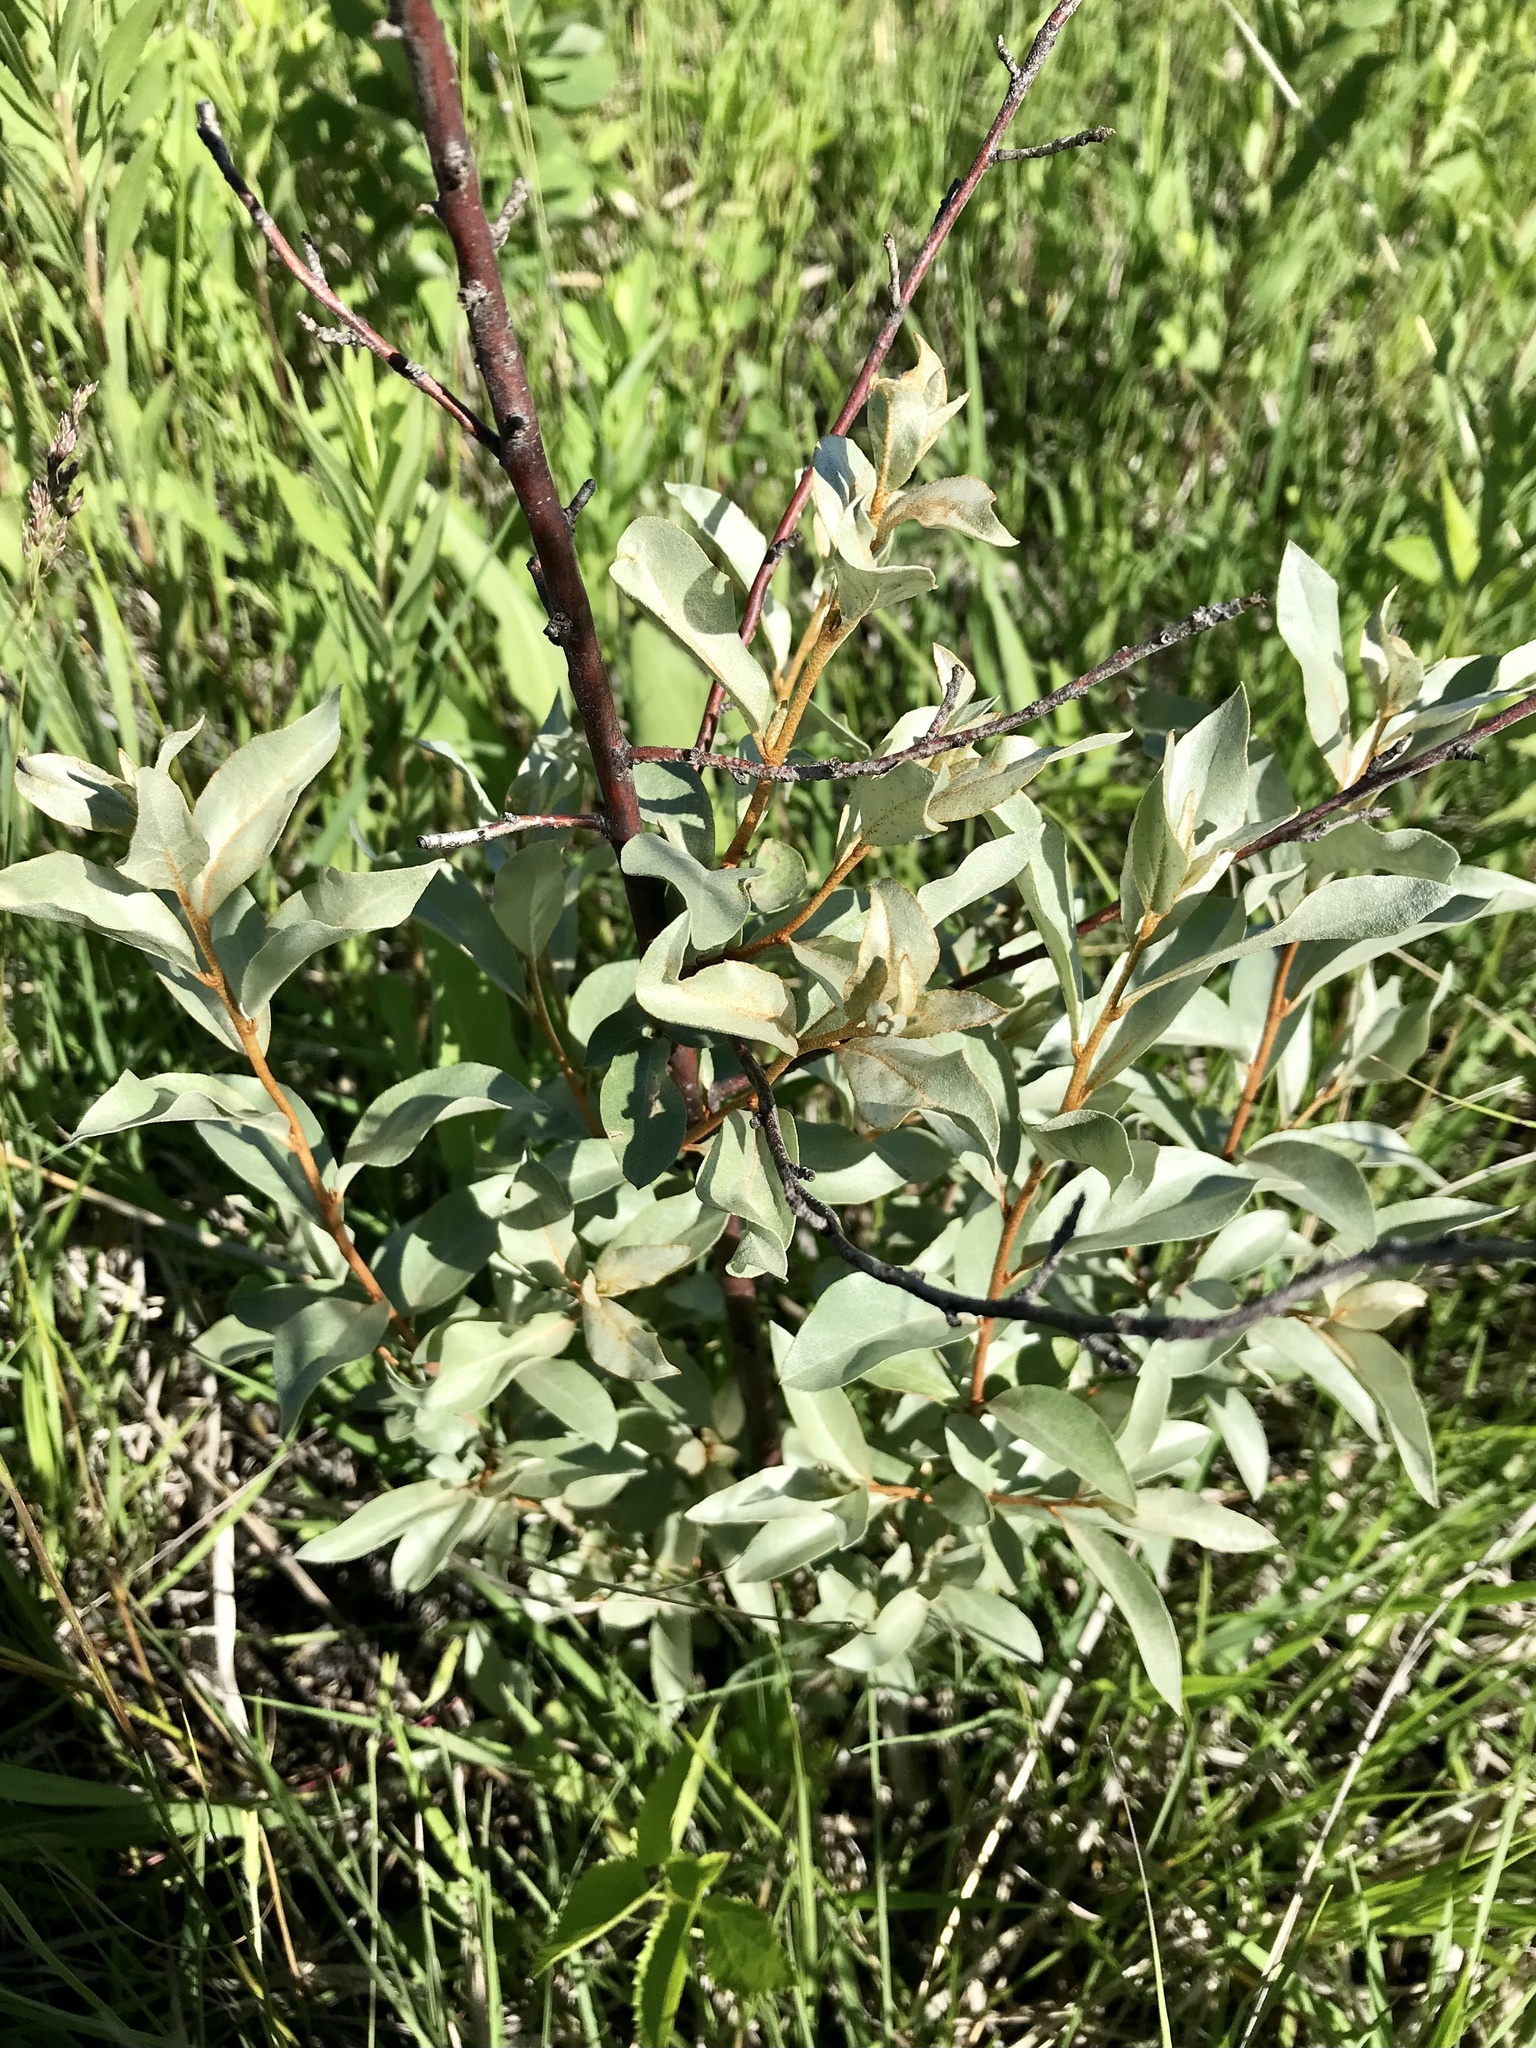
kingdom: Plantae
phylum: Tracheophyta
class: Magnoliopsida
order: Rosales
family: Elaeagnaceae
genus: Elaeagnus
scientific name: Elaeagnus commutata
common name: Silverberry
